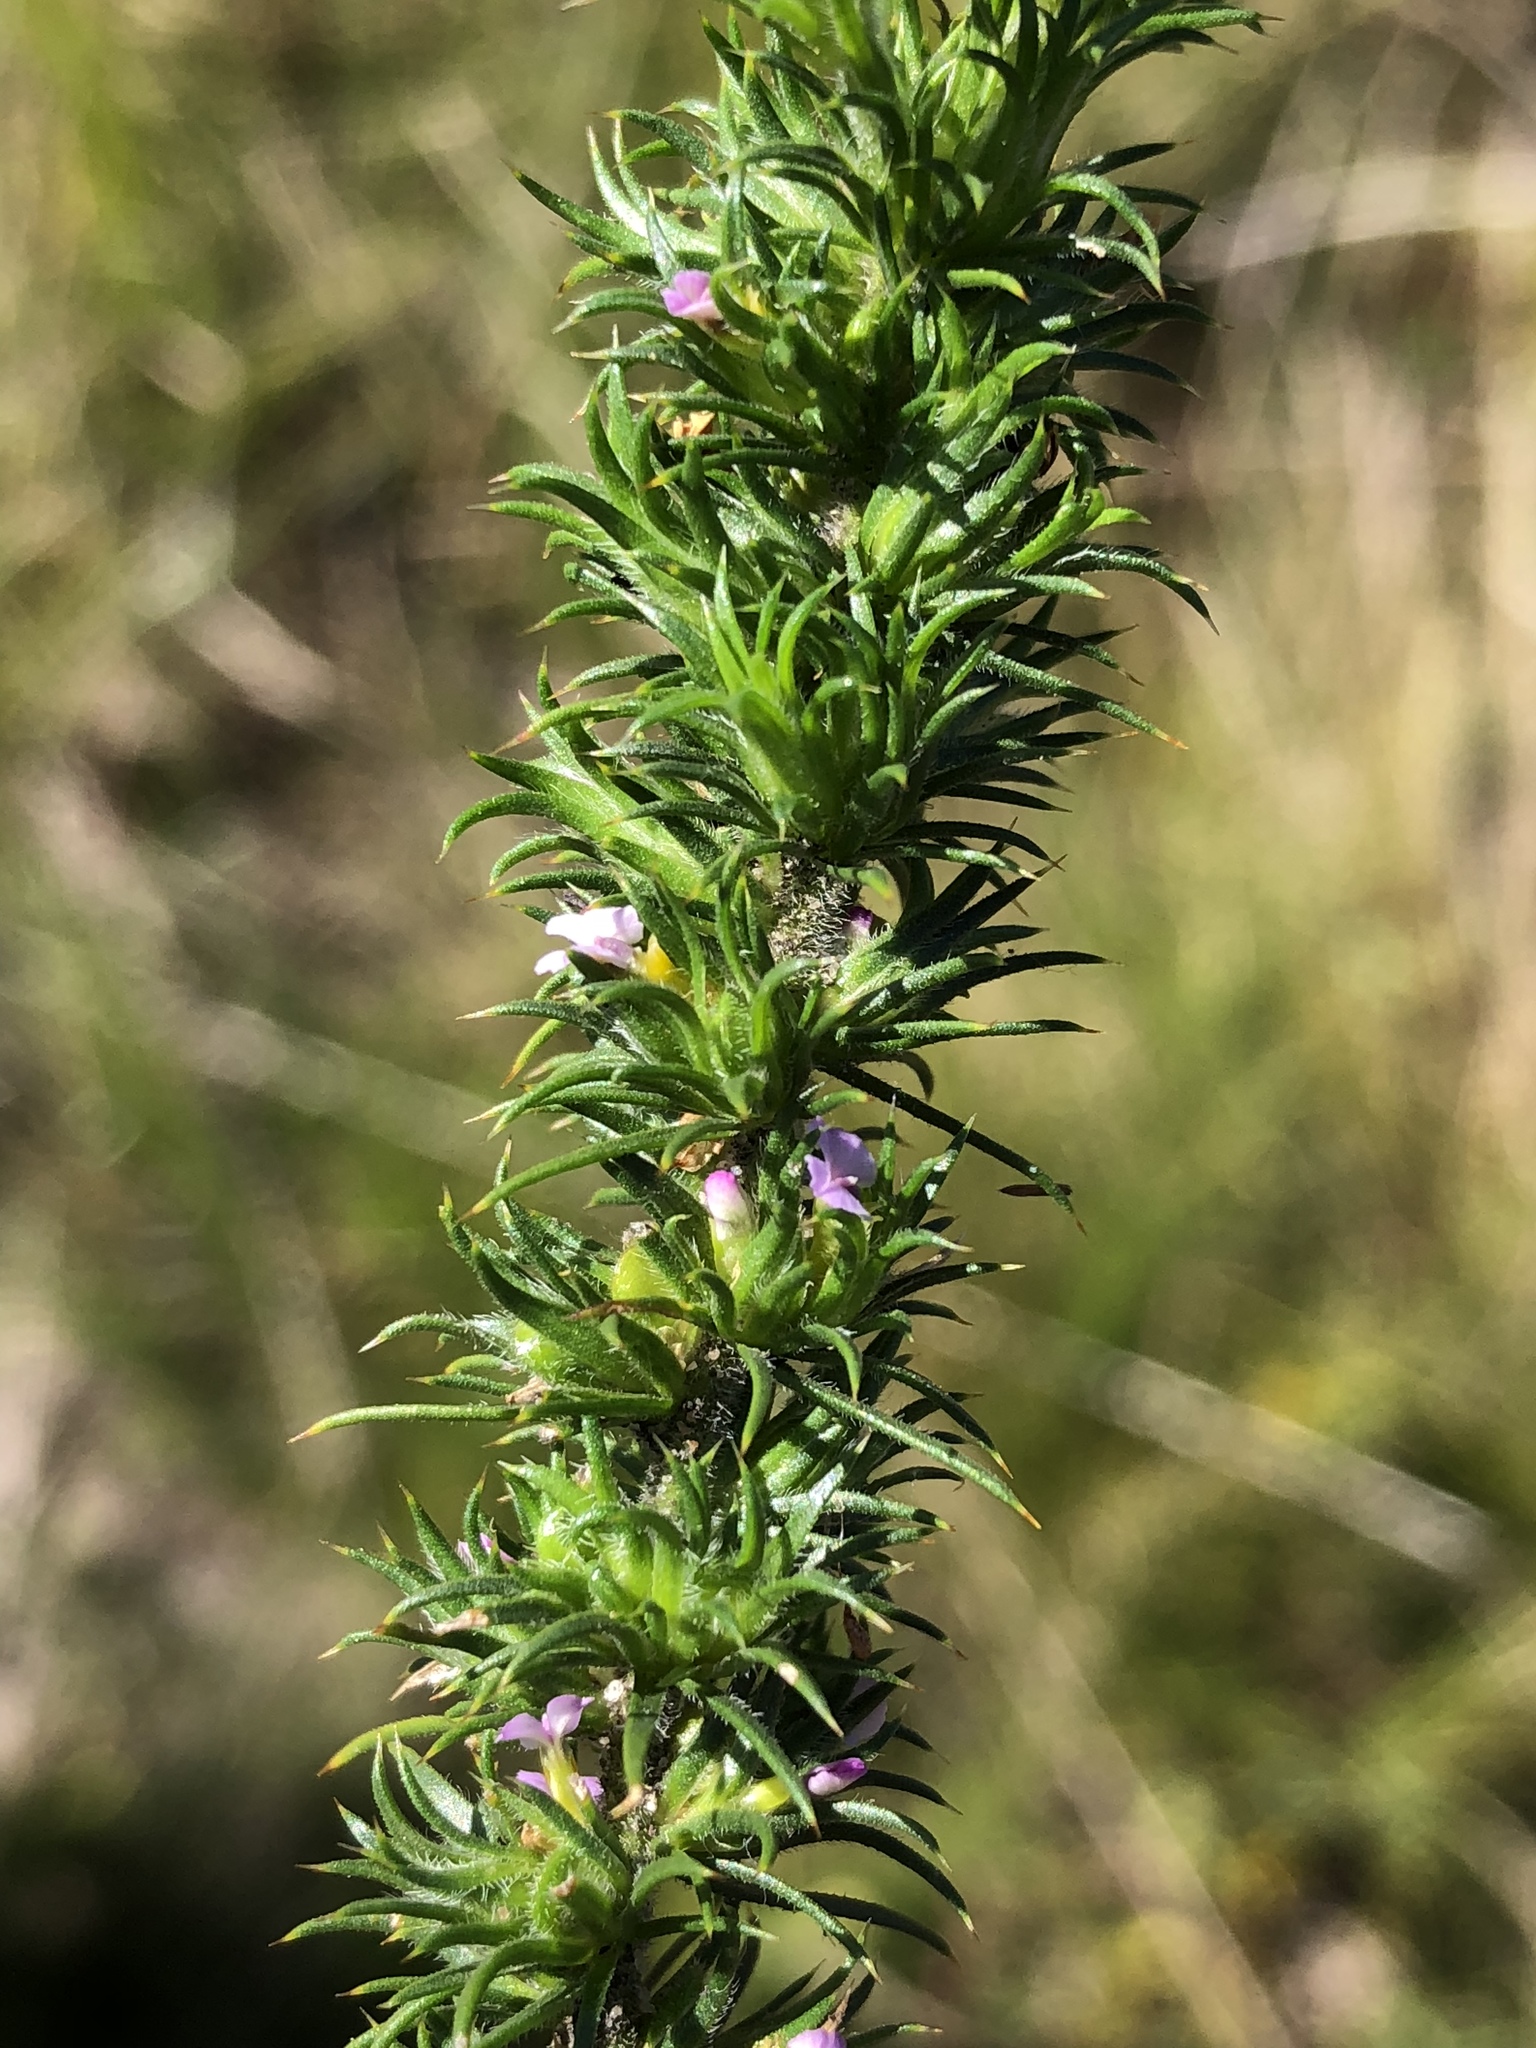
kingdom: Plantae
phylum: Tracheophyta
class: Magnoliopsida
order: Fabales
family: Polygalaceae
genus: Muraltia
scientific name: Muraltia alopecuroides
